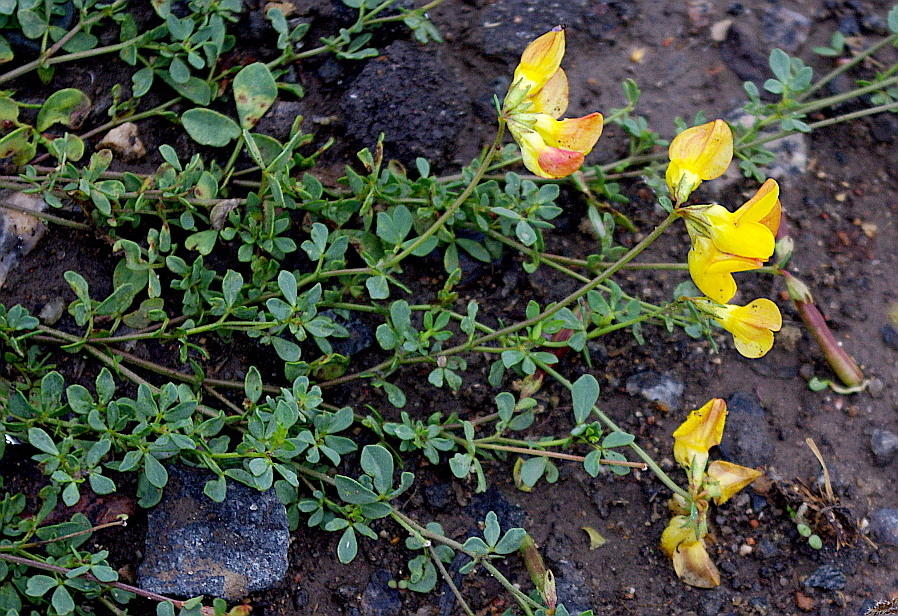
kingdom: Plantae
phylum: Tracheophyta
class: Magnoliopsida
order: Fabales
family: Fabaceae
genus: Lotus
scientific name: Lotus corniculatus
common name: Common bird's-foot-trefoil
